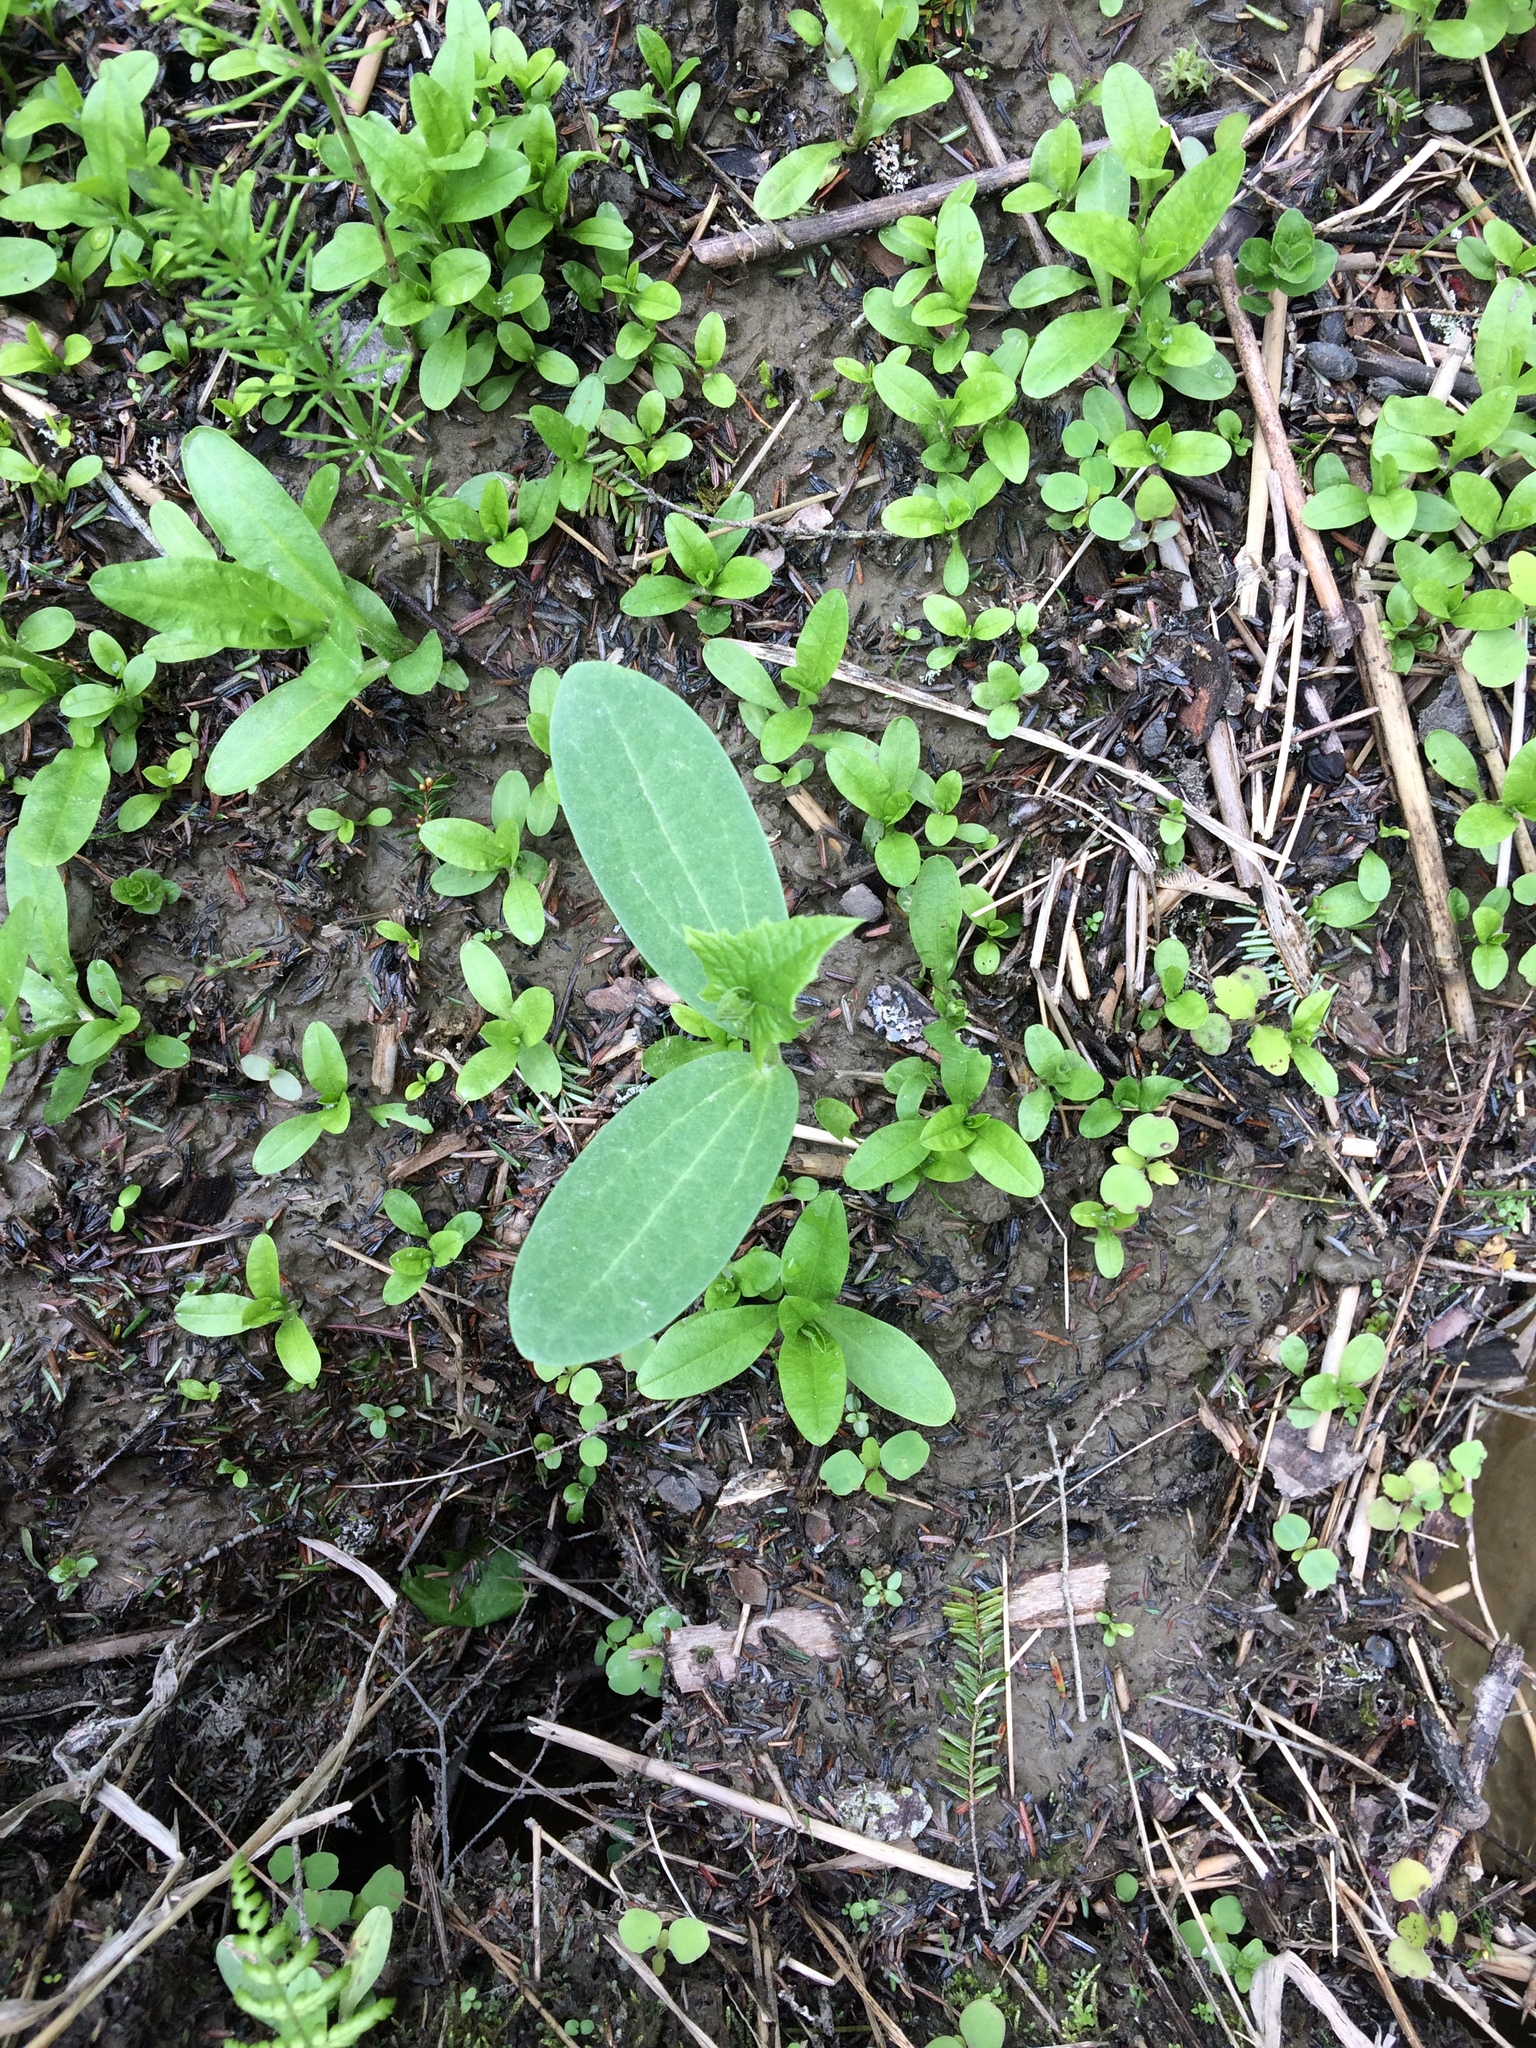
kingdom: Plantae
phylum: Tracheophyta
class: Magnoliopsida
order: Cucurbitales
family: Cucurbitaceae
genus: Echinocystis
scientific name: Echinocystis lobata
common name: Wild cucumber
